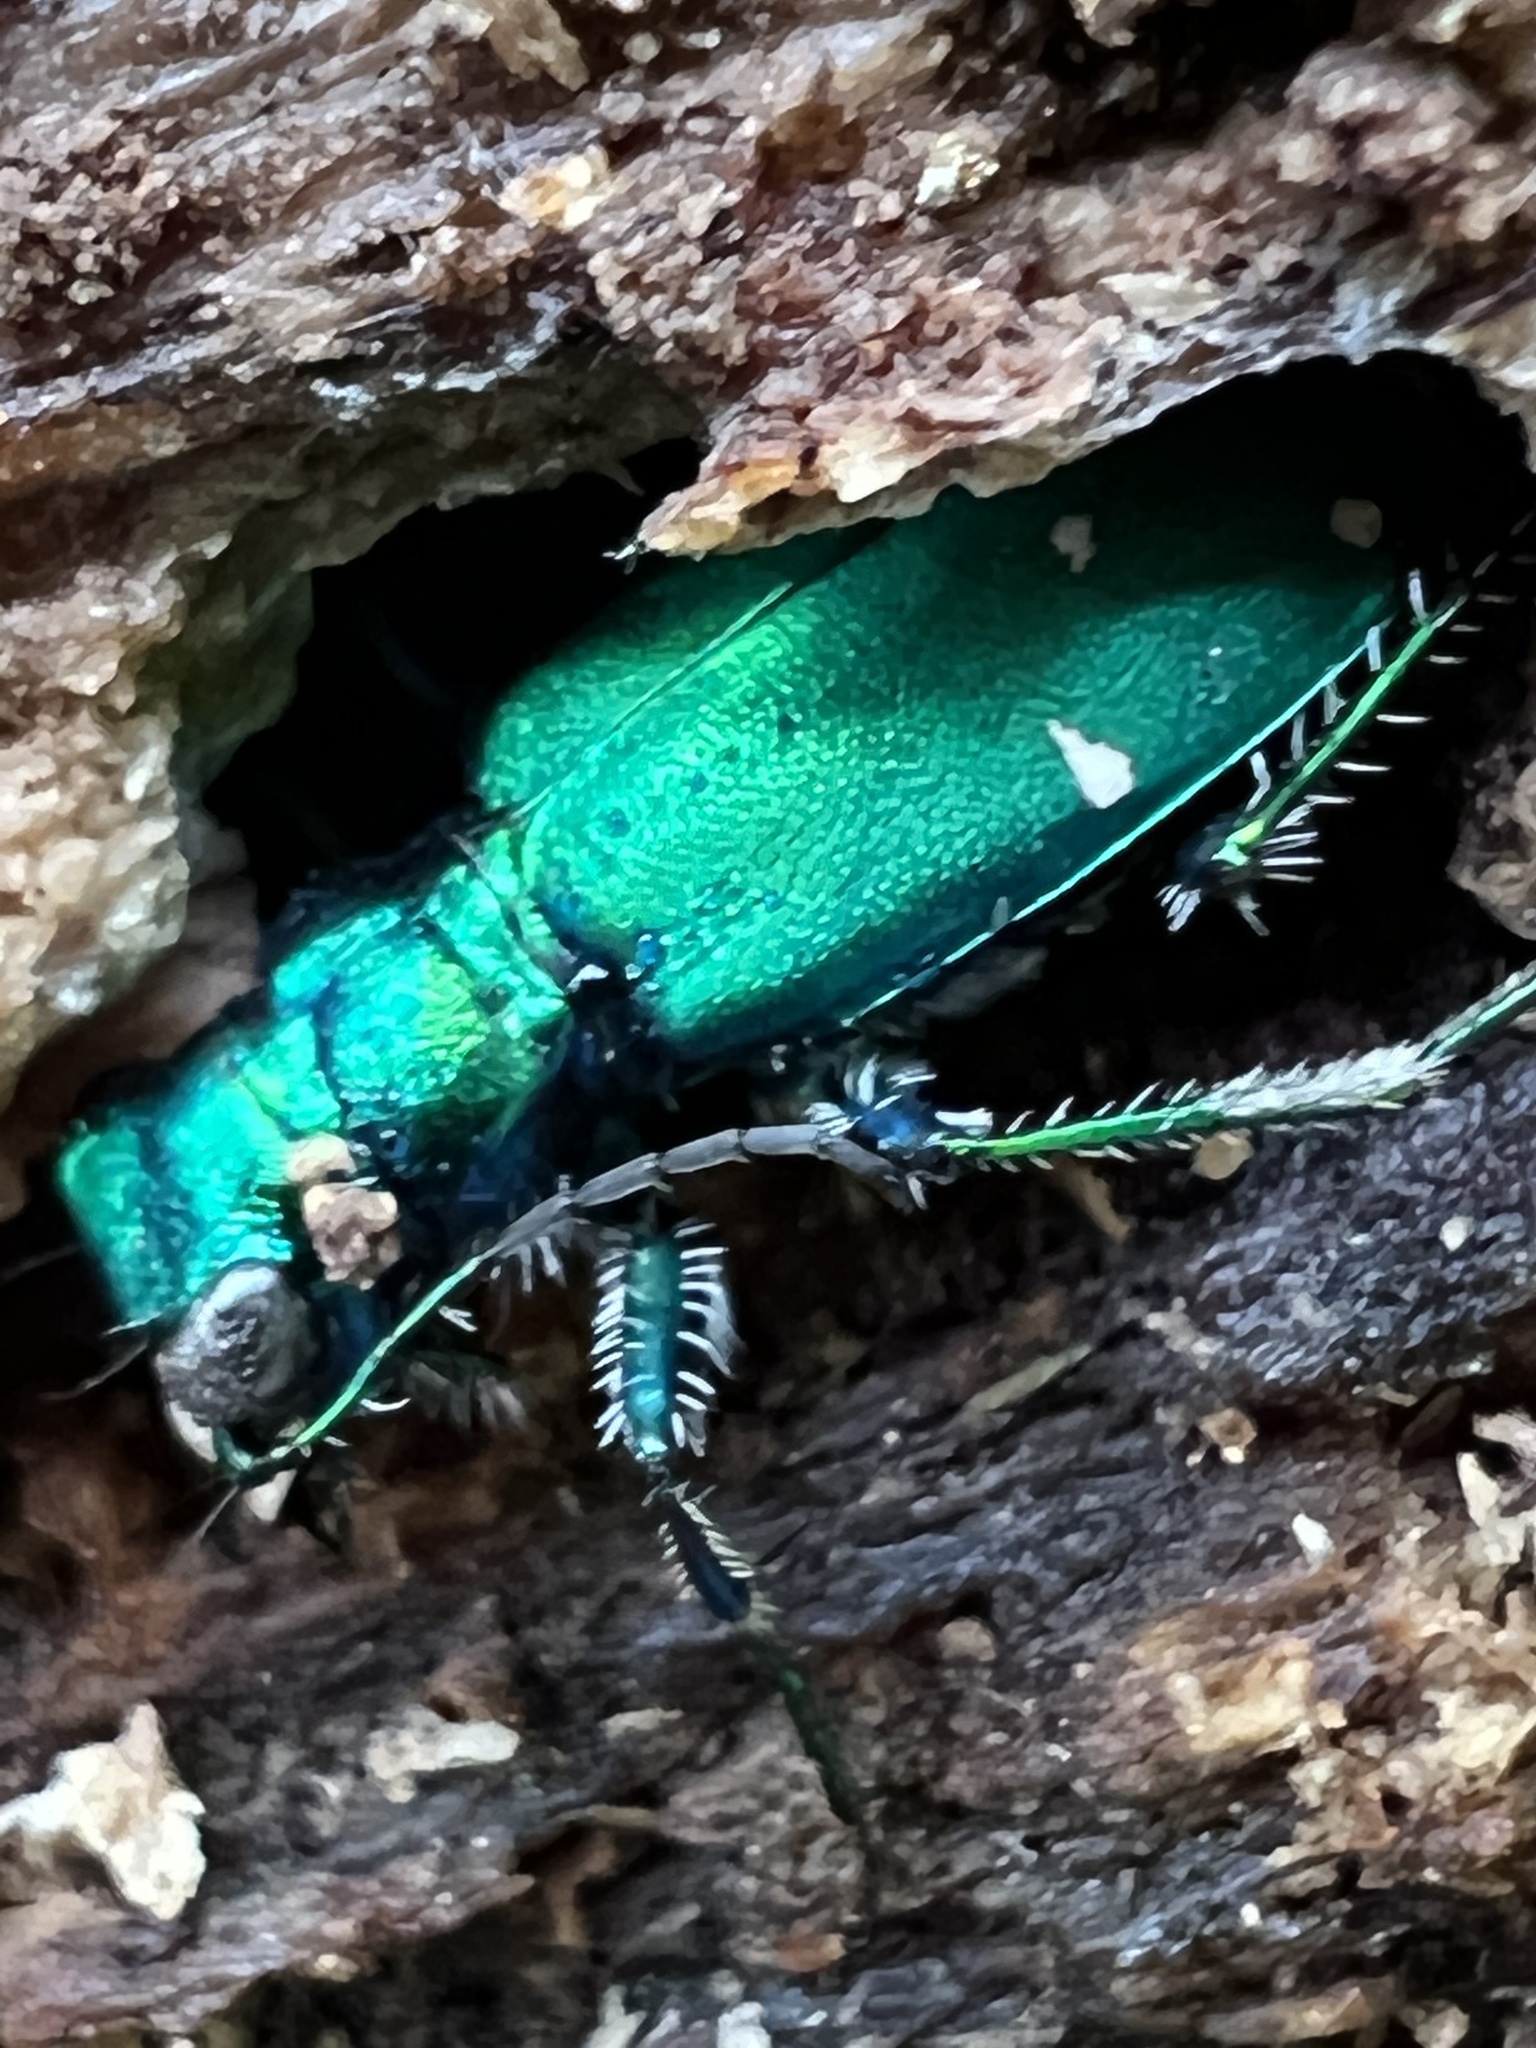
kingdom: Animalia
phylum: Arthropoda
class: Insecta
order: Coleoptera
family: Carabidae
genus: Cicindela
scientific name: Cicindela sexguttata
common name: Six-spotted tiger beetle
